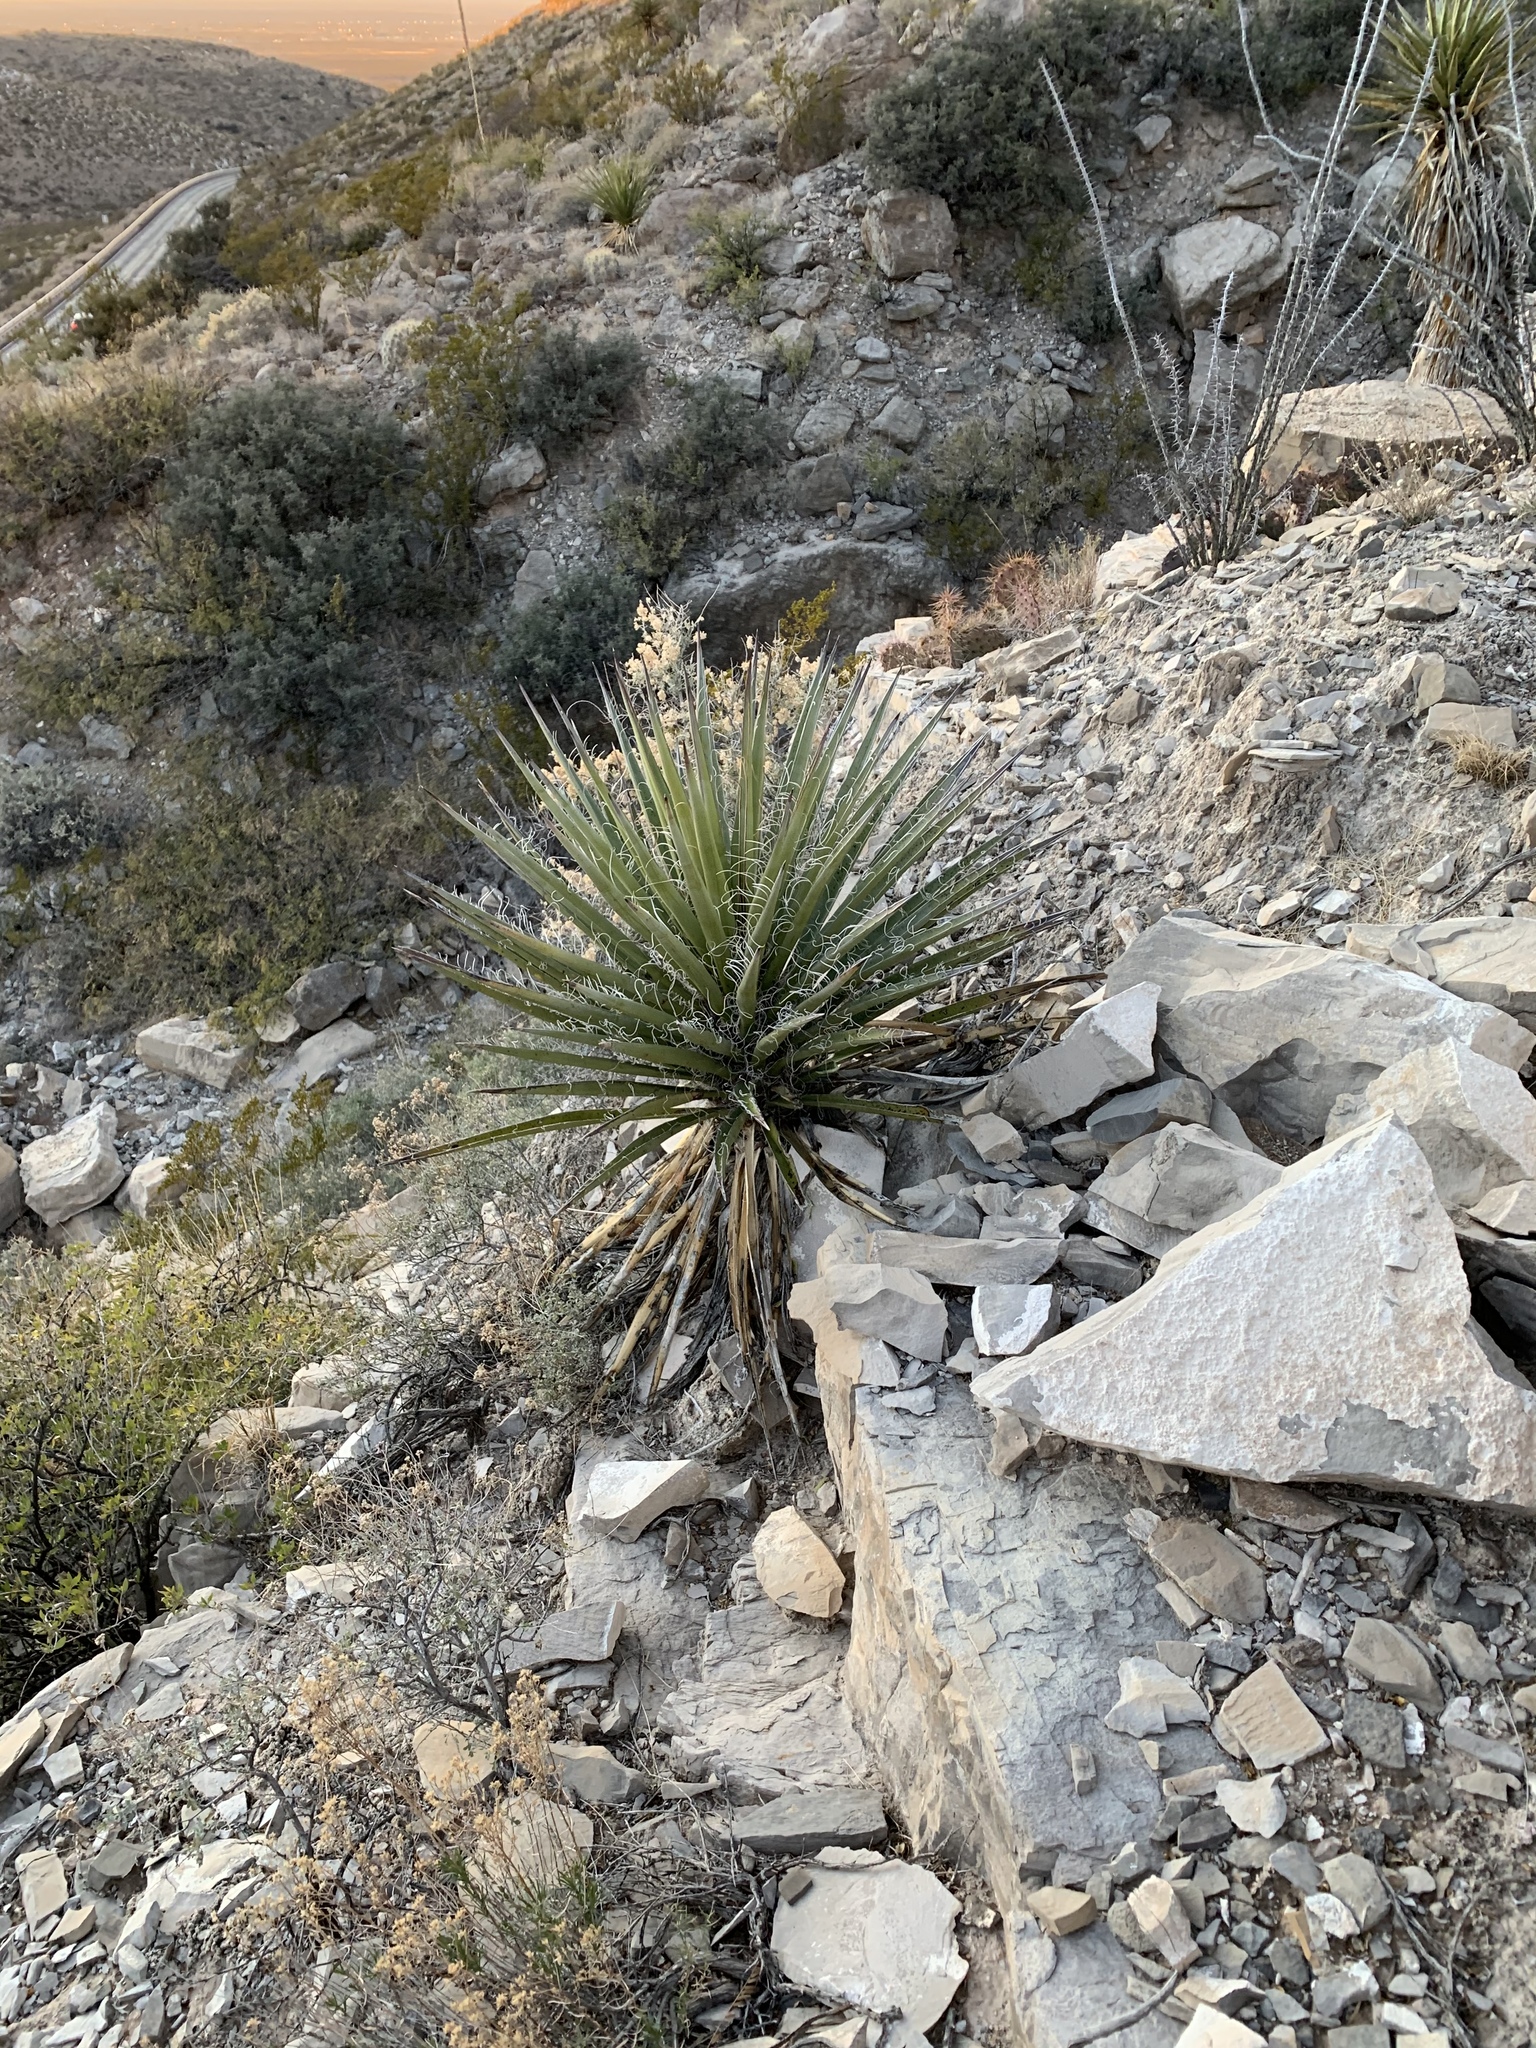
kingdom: Plantae
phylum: Tracheophyta
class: Liliopsida
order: Asparagales
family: Asparagaceae
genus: Yucca
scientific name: Yucca treculiana
